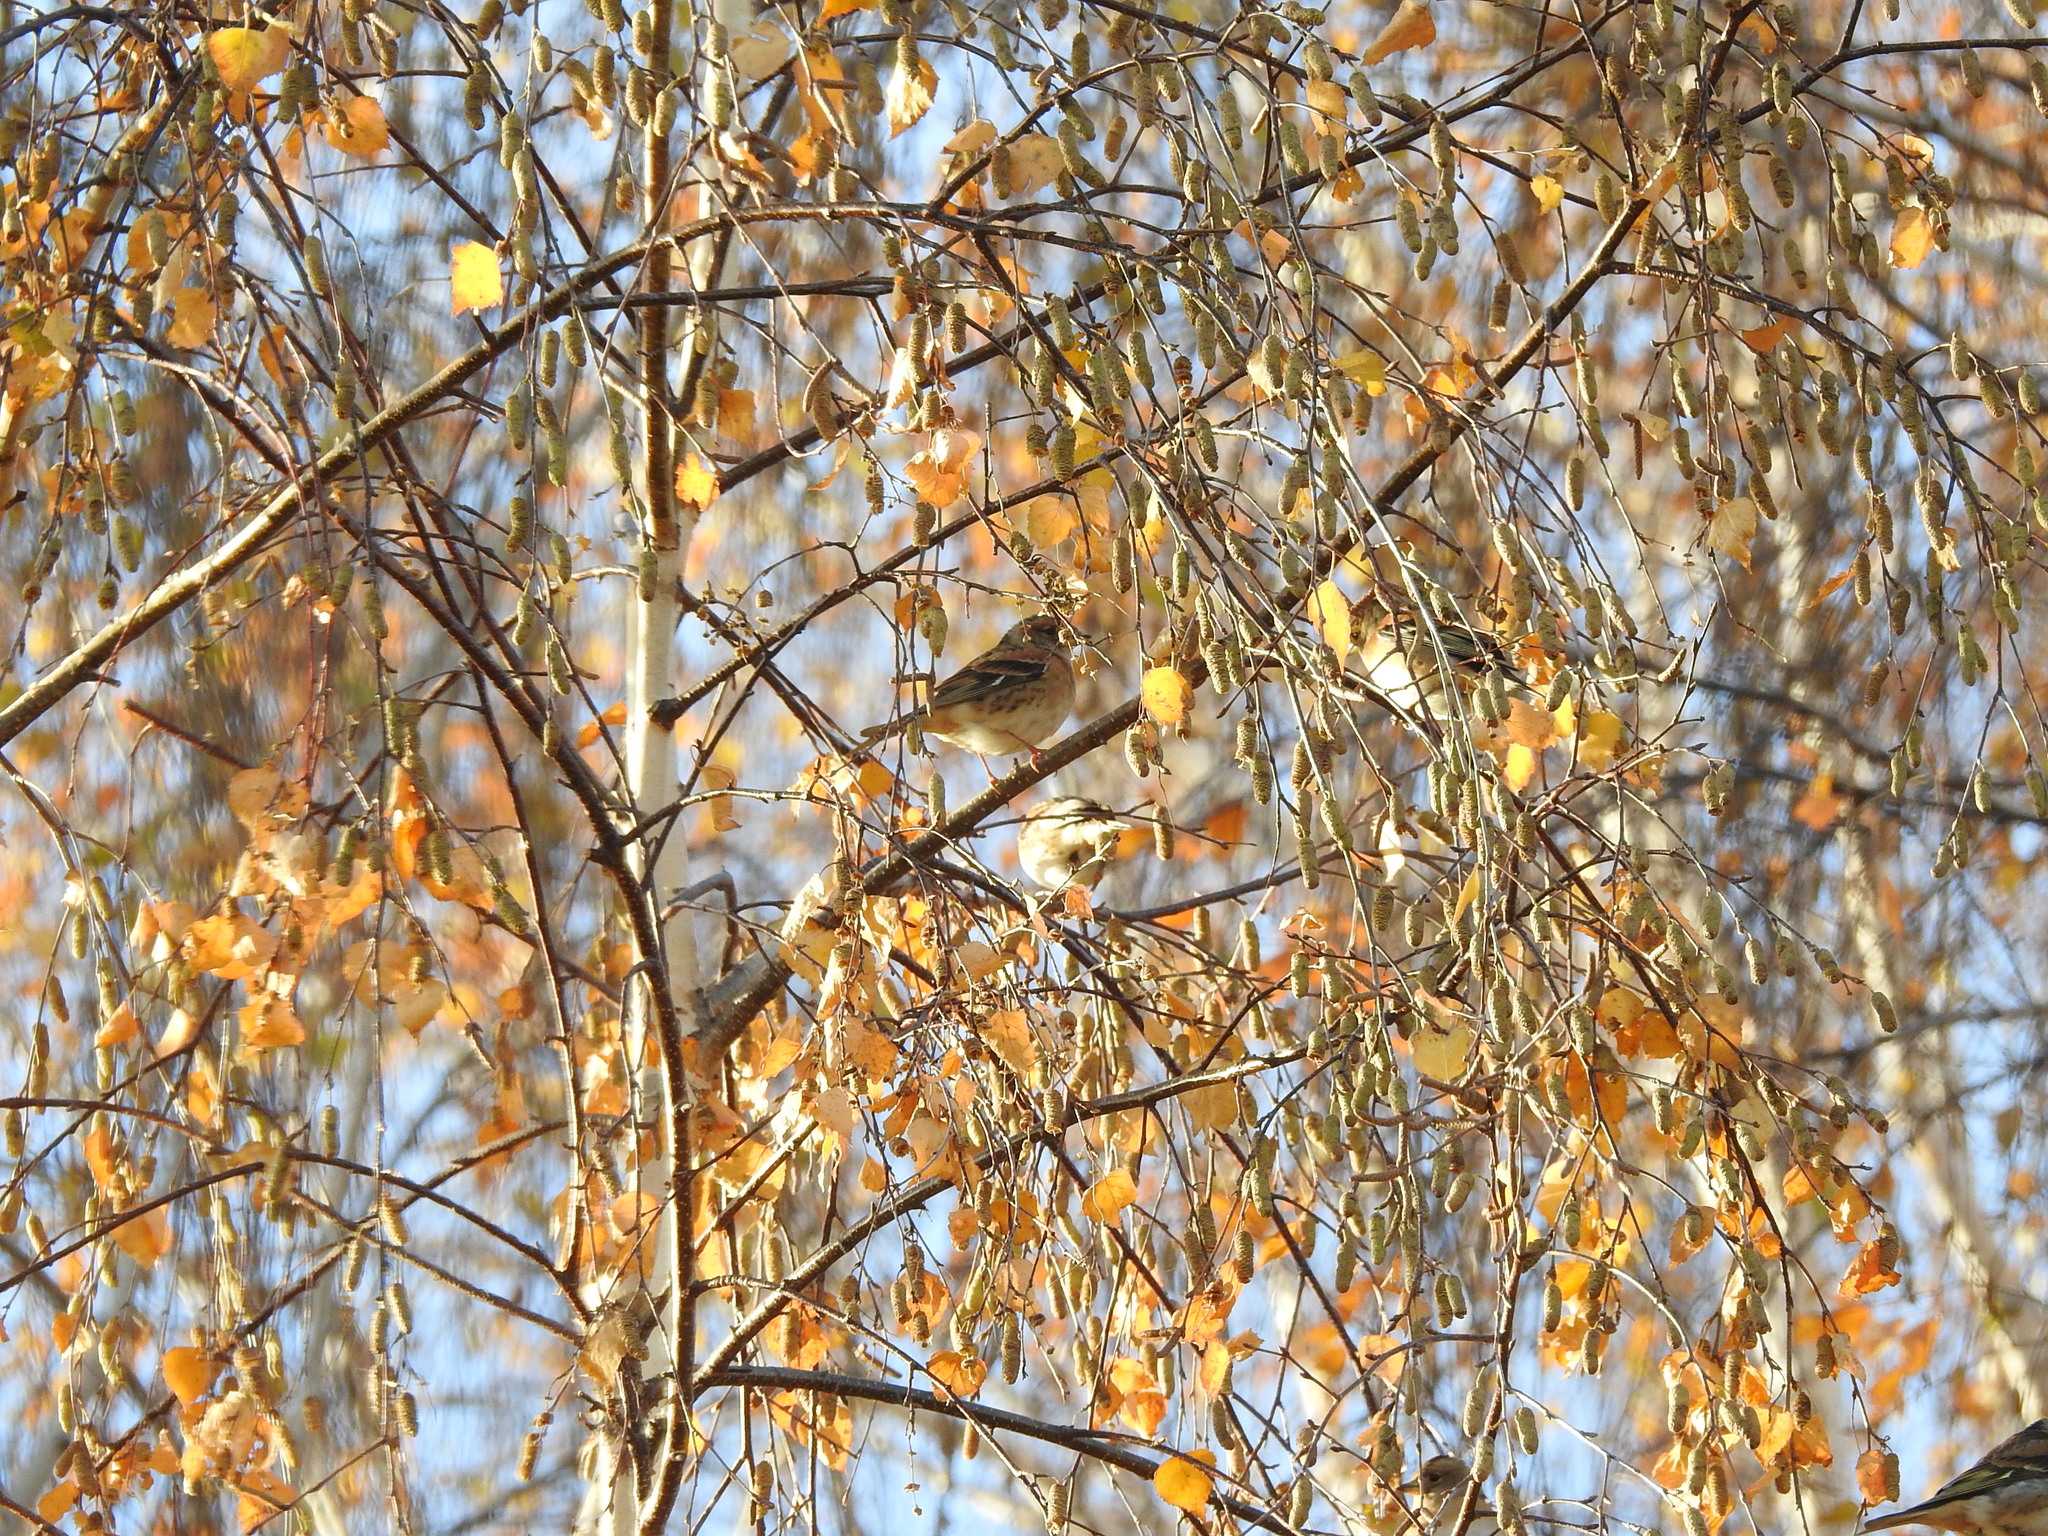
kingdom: Animalia
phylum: Chordata
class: Aves
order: Passeriformes
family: Fringillidae
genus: Fringilla
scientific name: Fringilla montifringilla
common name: Brambling
